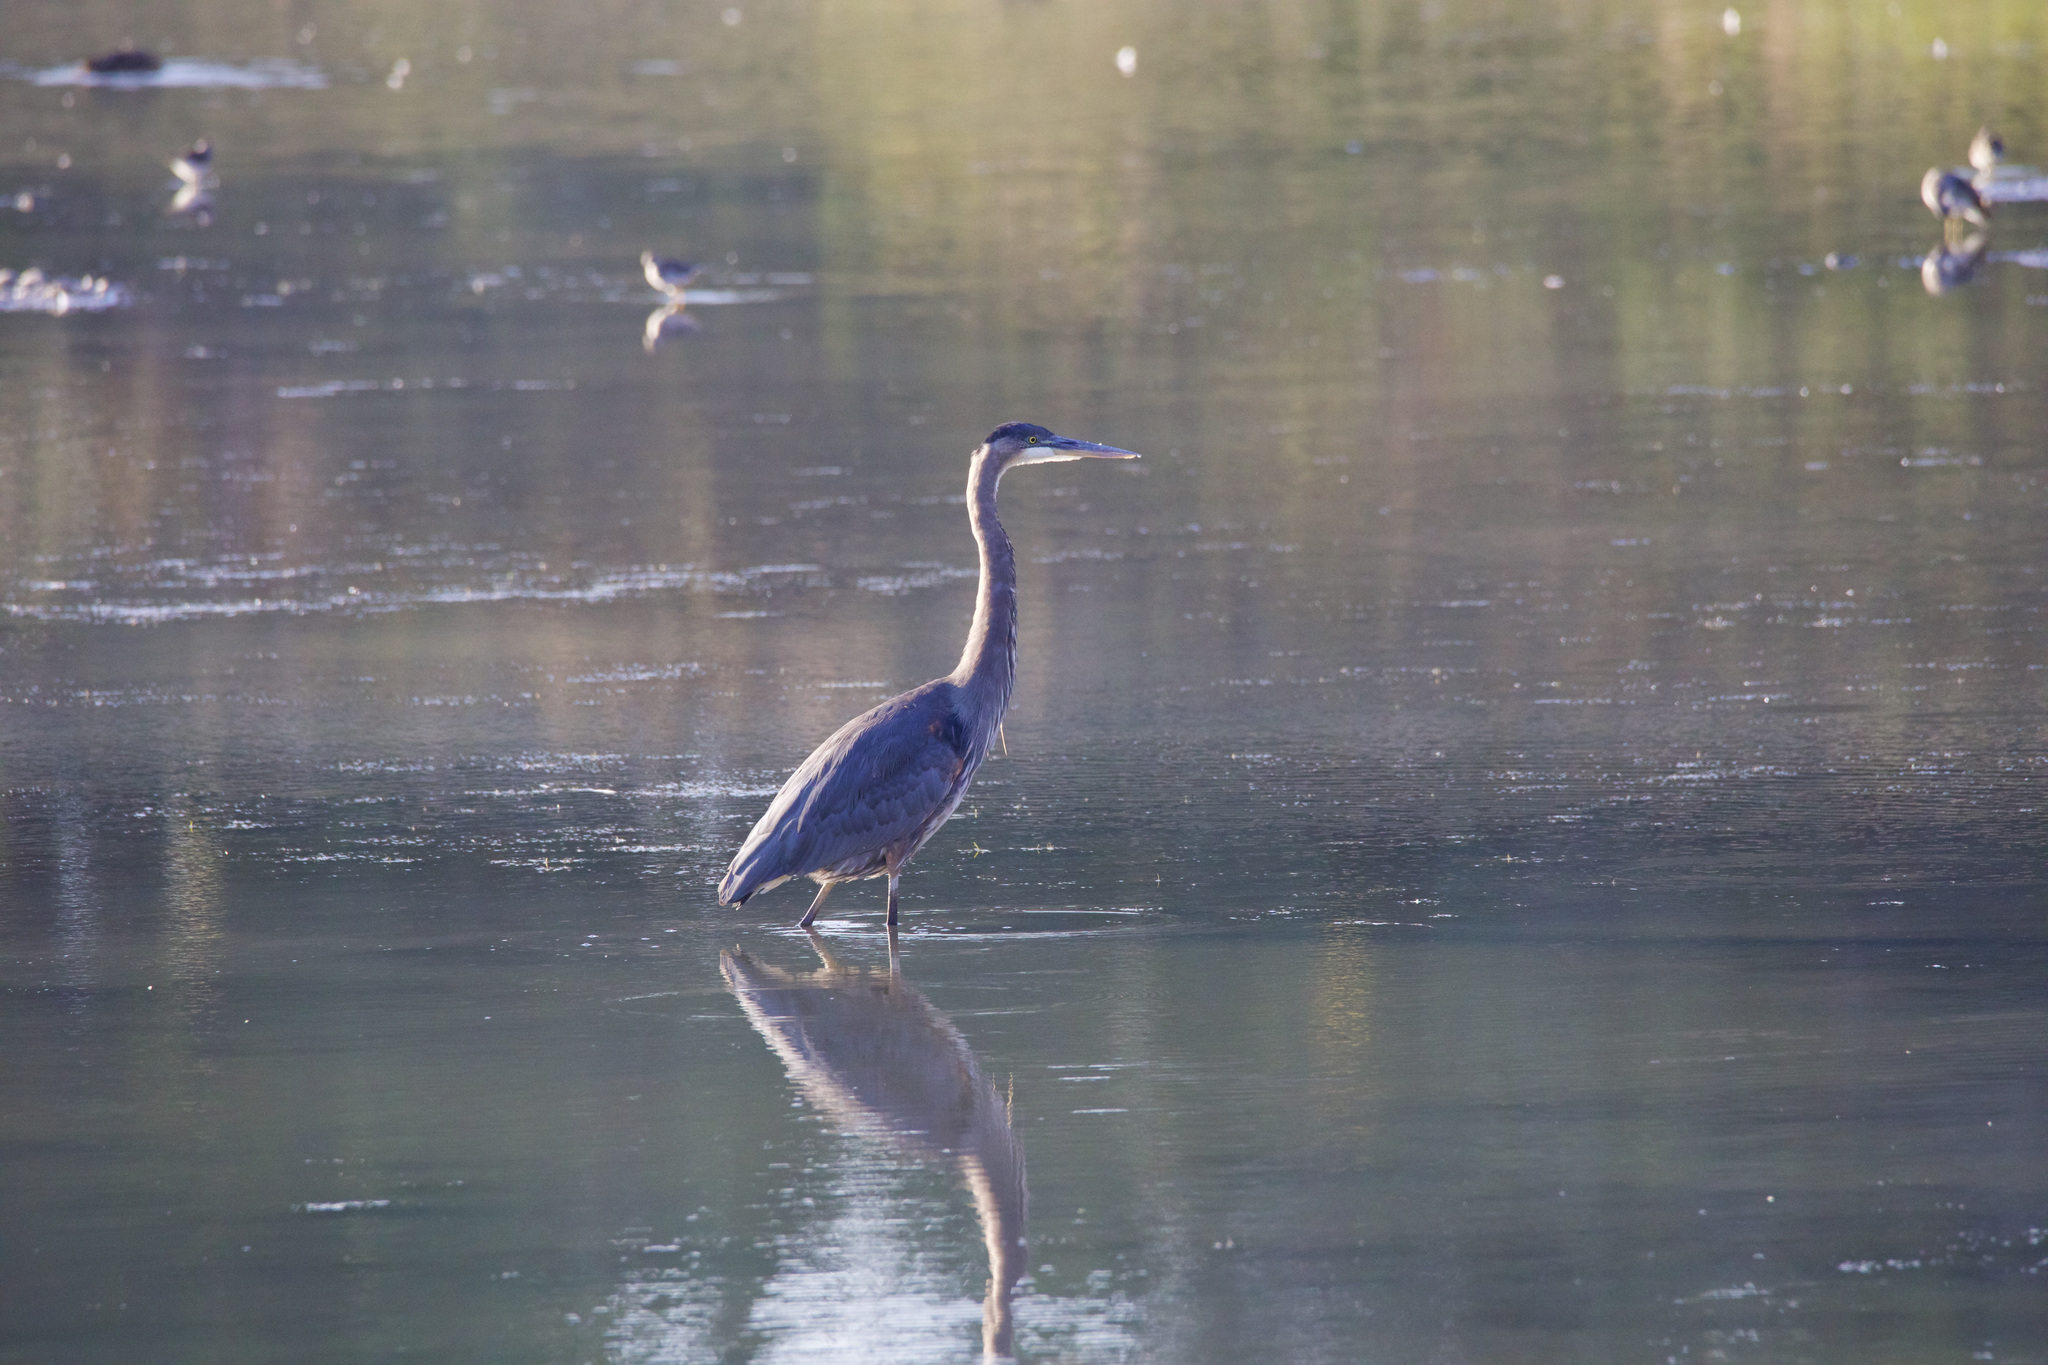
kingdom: Animalia
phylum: Chordata
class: Aves
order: Pelecaniformes
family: Ardeidae
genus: Ardea
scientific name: Ardea herodias
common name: Great blue heron
